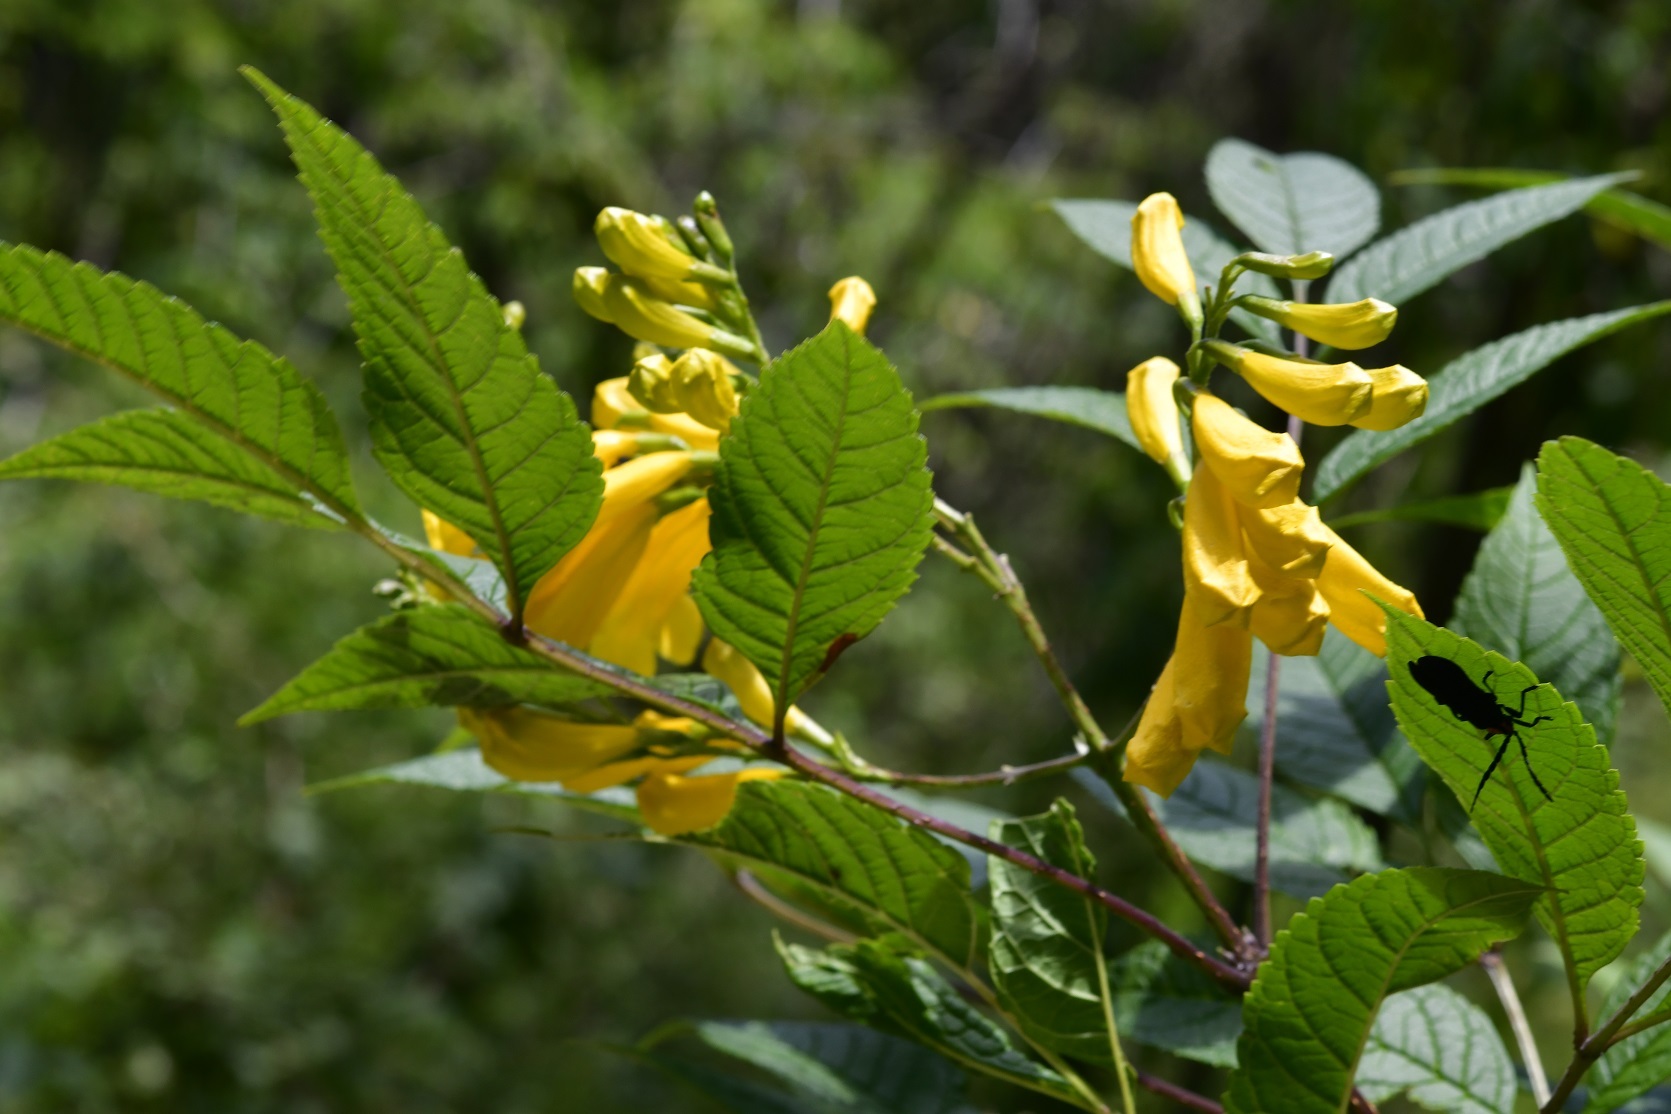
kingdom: Plantae
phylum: Tracheophyta
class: Magnoliopsida
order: Lamiales
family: Bignoniaceae
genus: Tecoma
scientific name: Tecoma stans
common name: Yellow trumpetbush
